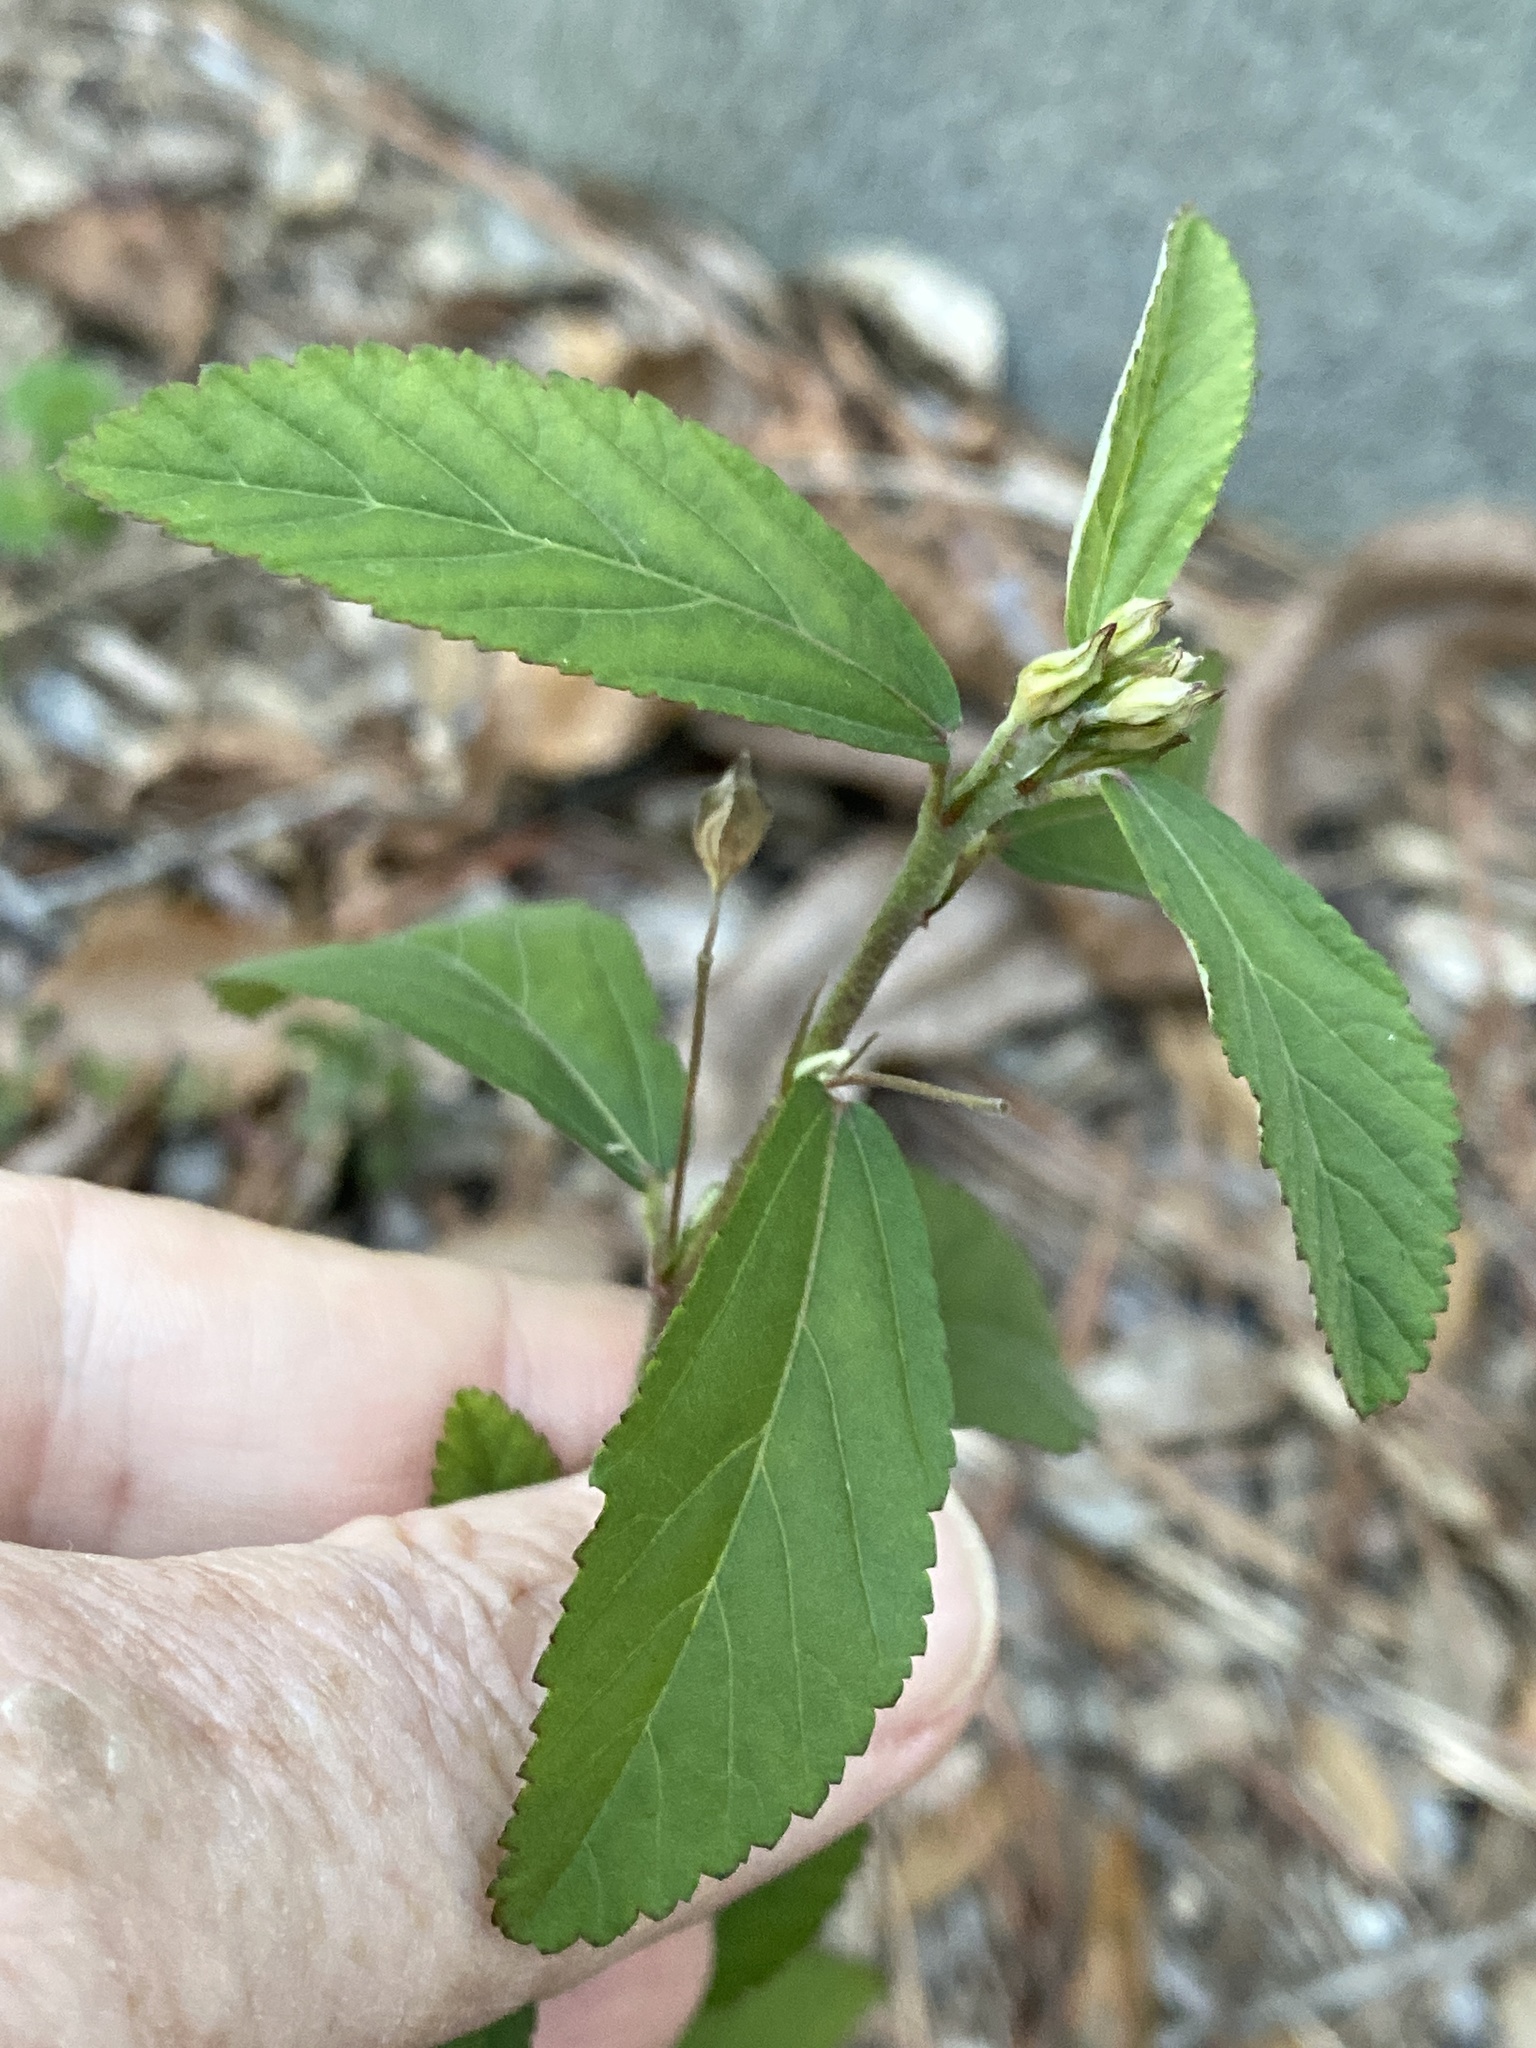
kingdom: Plantae
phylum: Tracheophyta
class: Magnoliopsida
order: Malvales
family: Malvaceae
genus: Sida
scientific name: Sida rhombifolia
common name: Queensland-hemp
